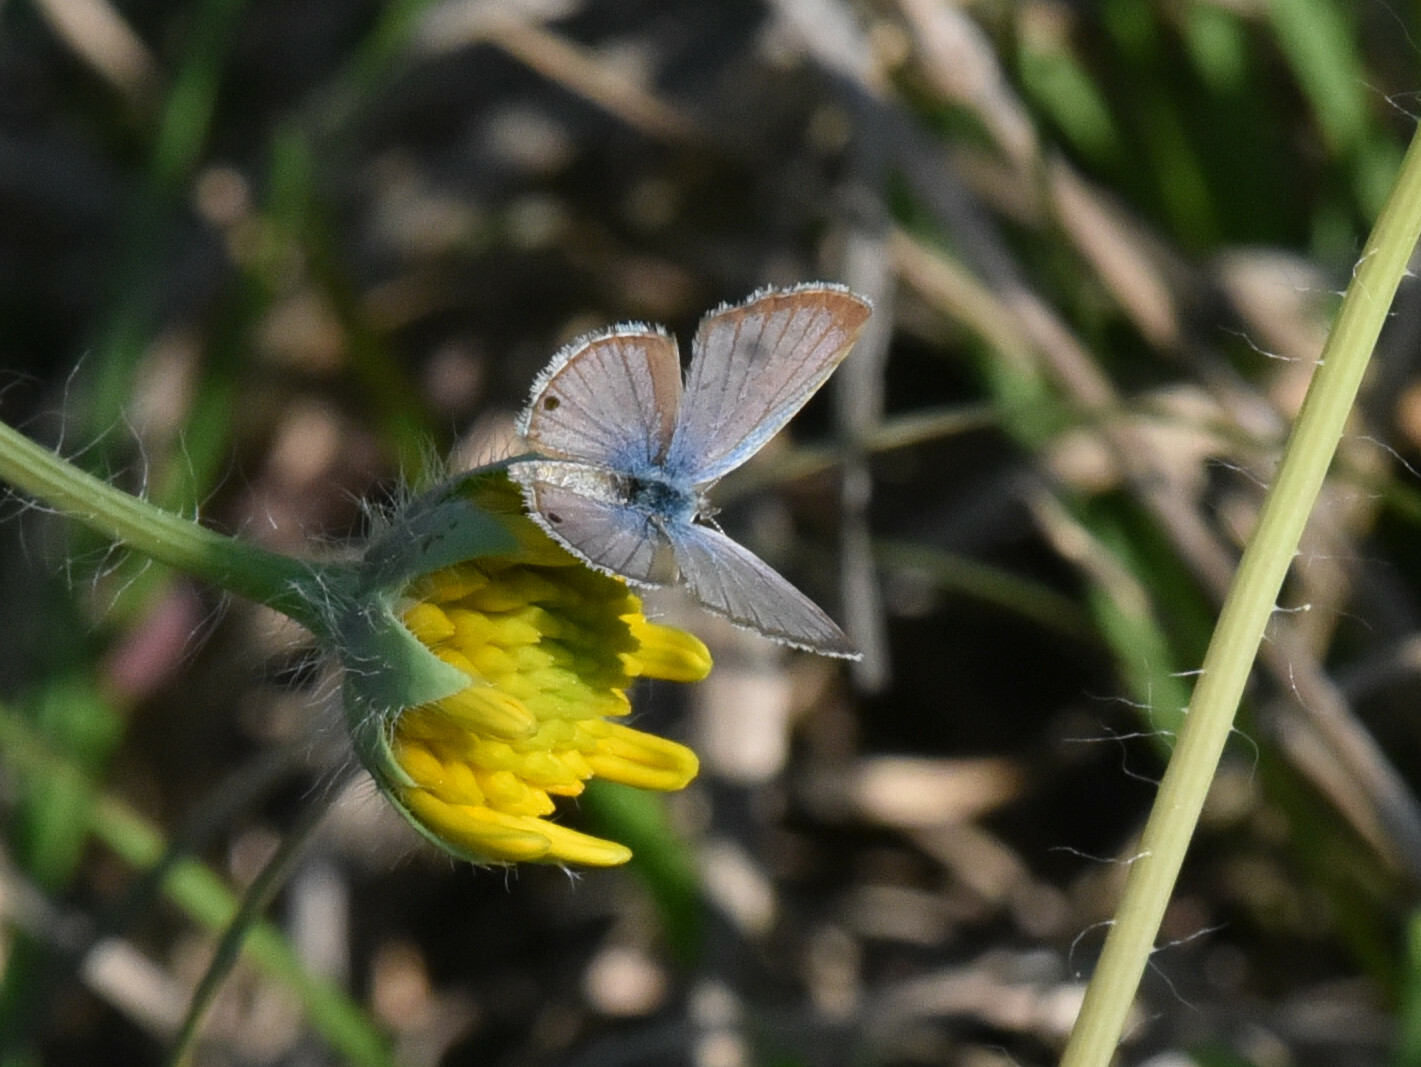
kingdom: Animalia
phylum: Arthropoda
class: Insecta
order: Lepidoptera
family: Lycaenidae
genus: Echinargus
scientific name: Echinargus isola
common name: Reakirt's blue
